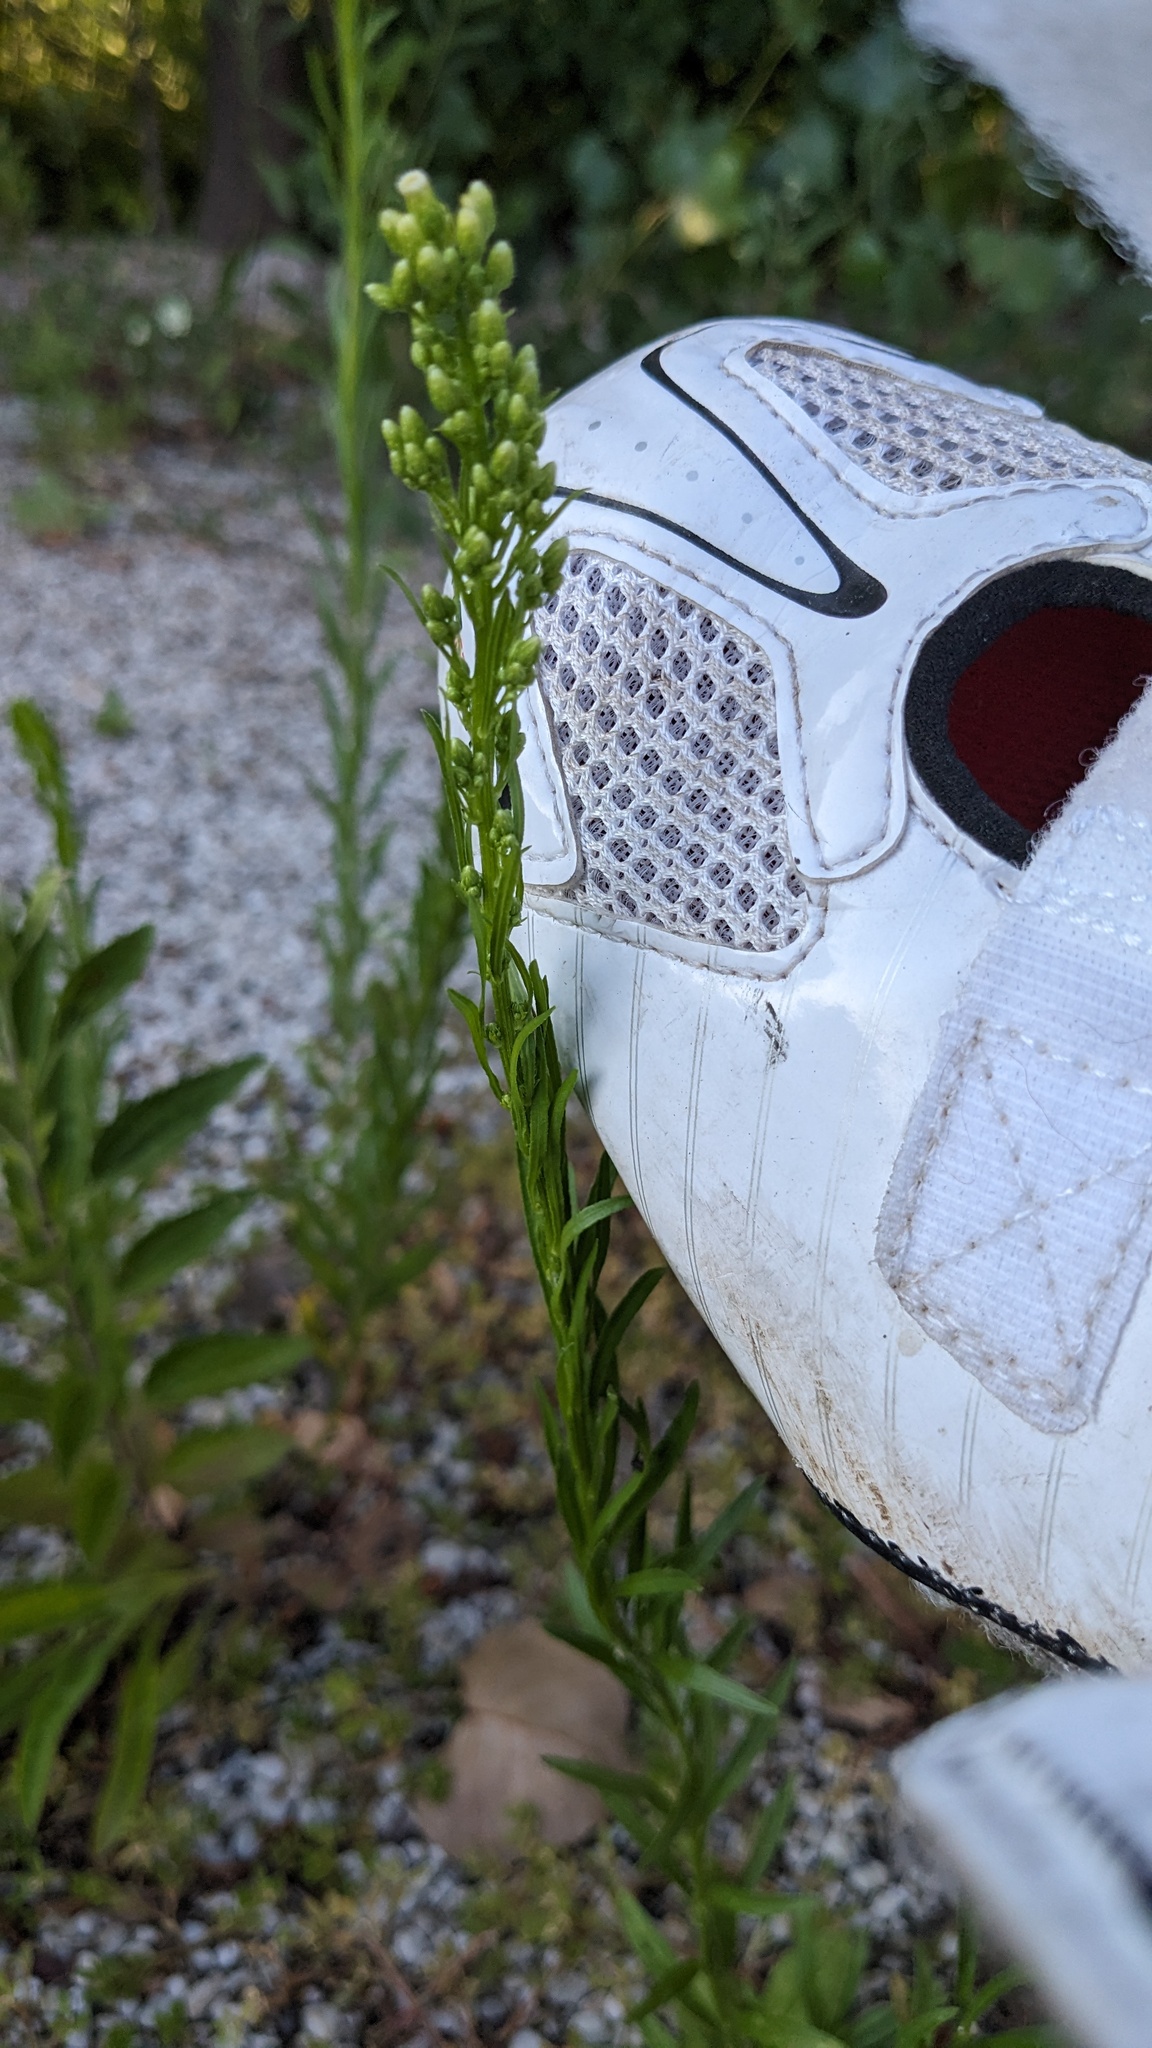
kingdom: Plantae
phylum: Tracheophyta
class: Magnoliopsida
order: Asterales
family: Asteraceae
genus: Erigeron
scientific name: Erigeron canadensis
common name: Canadian fleabane
